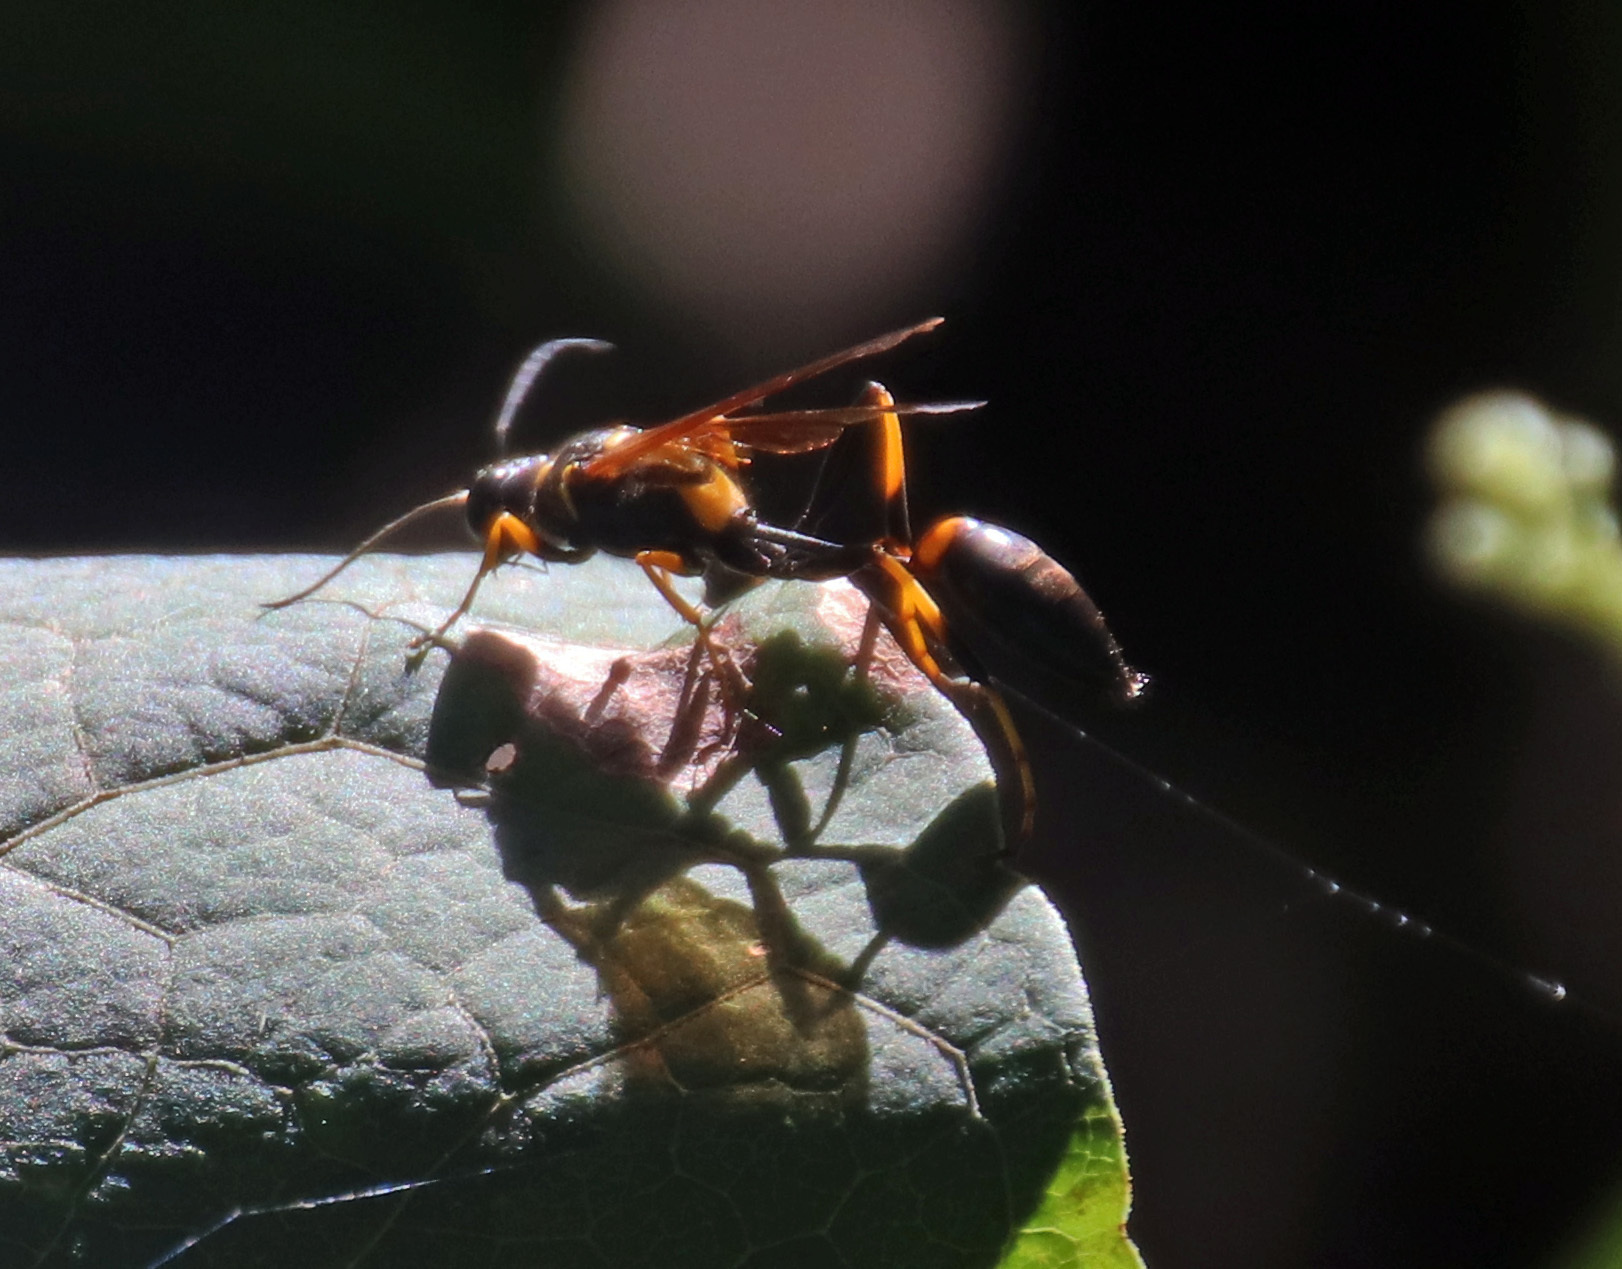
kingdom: Animalia
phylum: Arthropoda
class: Insecta
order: Hymenoptera
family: Sphecidae
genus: Sceliphron
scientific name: Sceliphron caementarium
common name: Mud dauber
